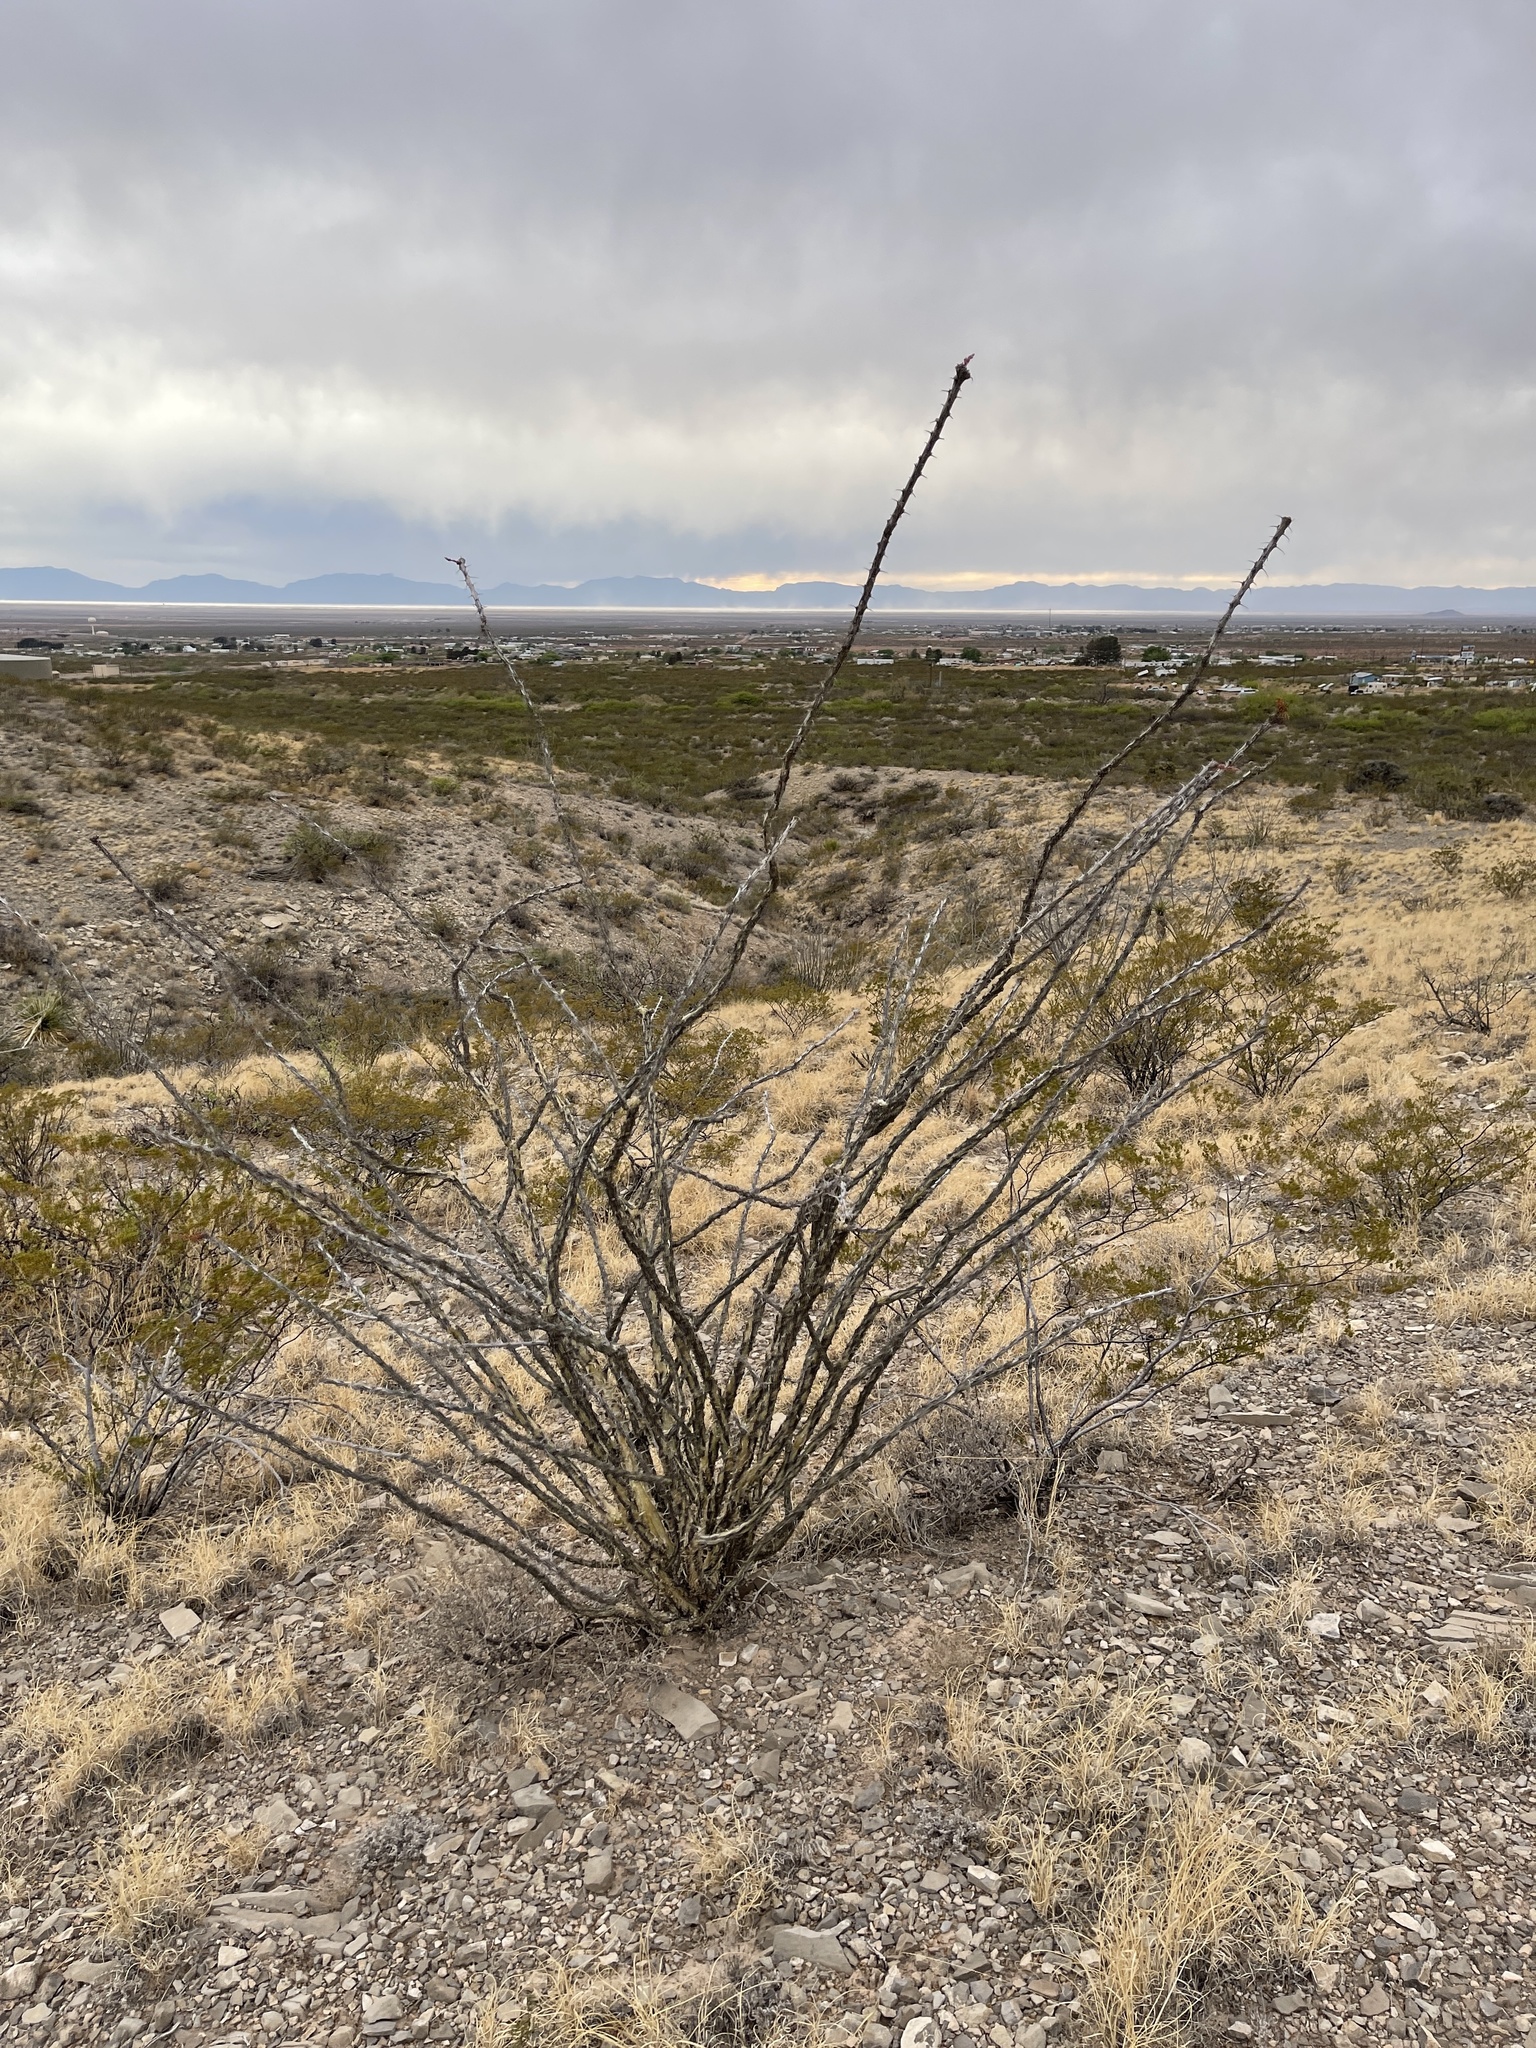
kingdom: Plantae
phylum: Tracheophyta
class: Magnoliopsida
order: Ericales
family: Fouquieriaceae
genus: Fouquieria
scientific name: Fouquieria splendens
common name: Vine-cactus
